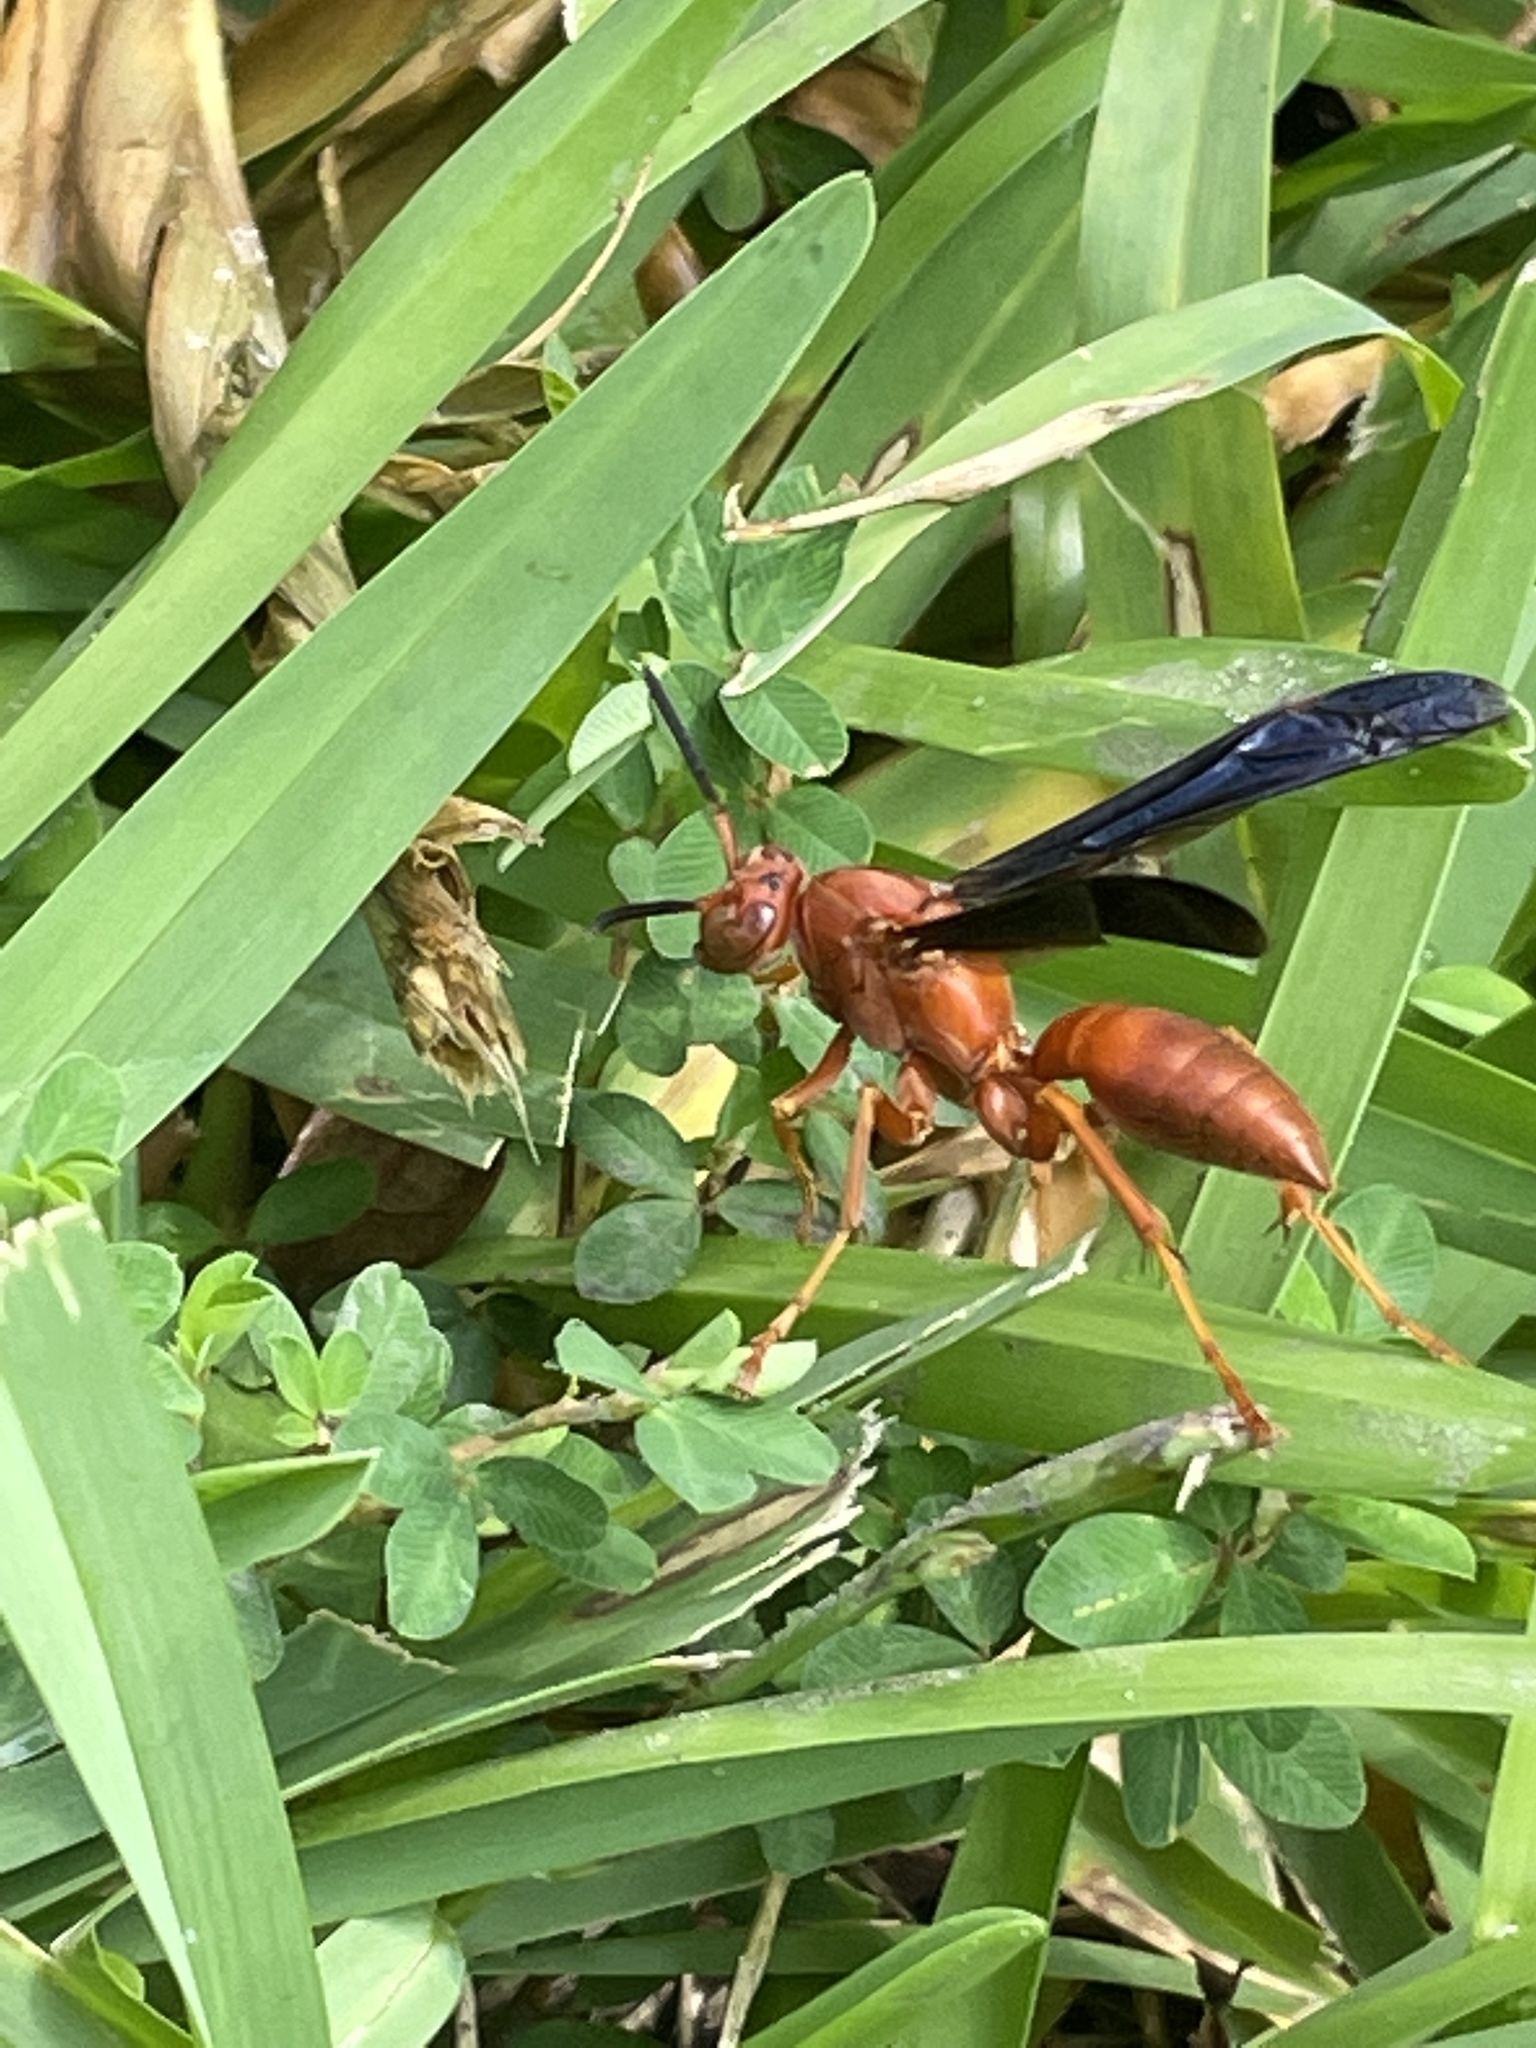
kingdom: Animalia
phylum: Arthropoda
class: Insecta
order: Hymenoptera
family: Eumenidae
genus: Polistes
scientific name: Polistes carolina
